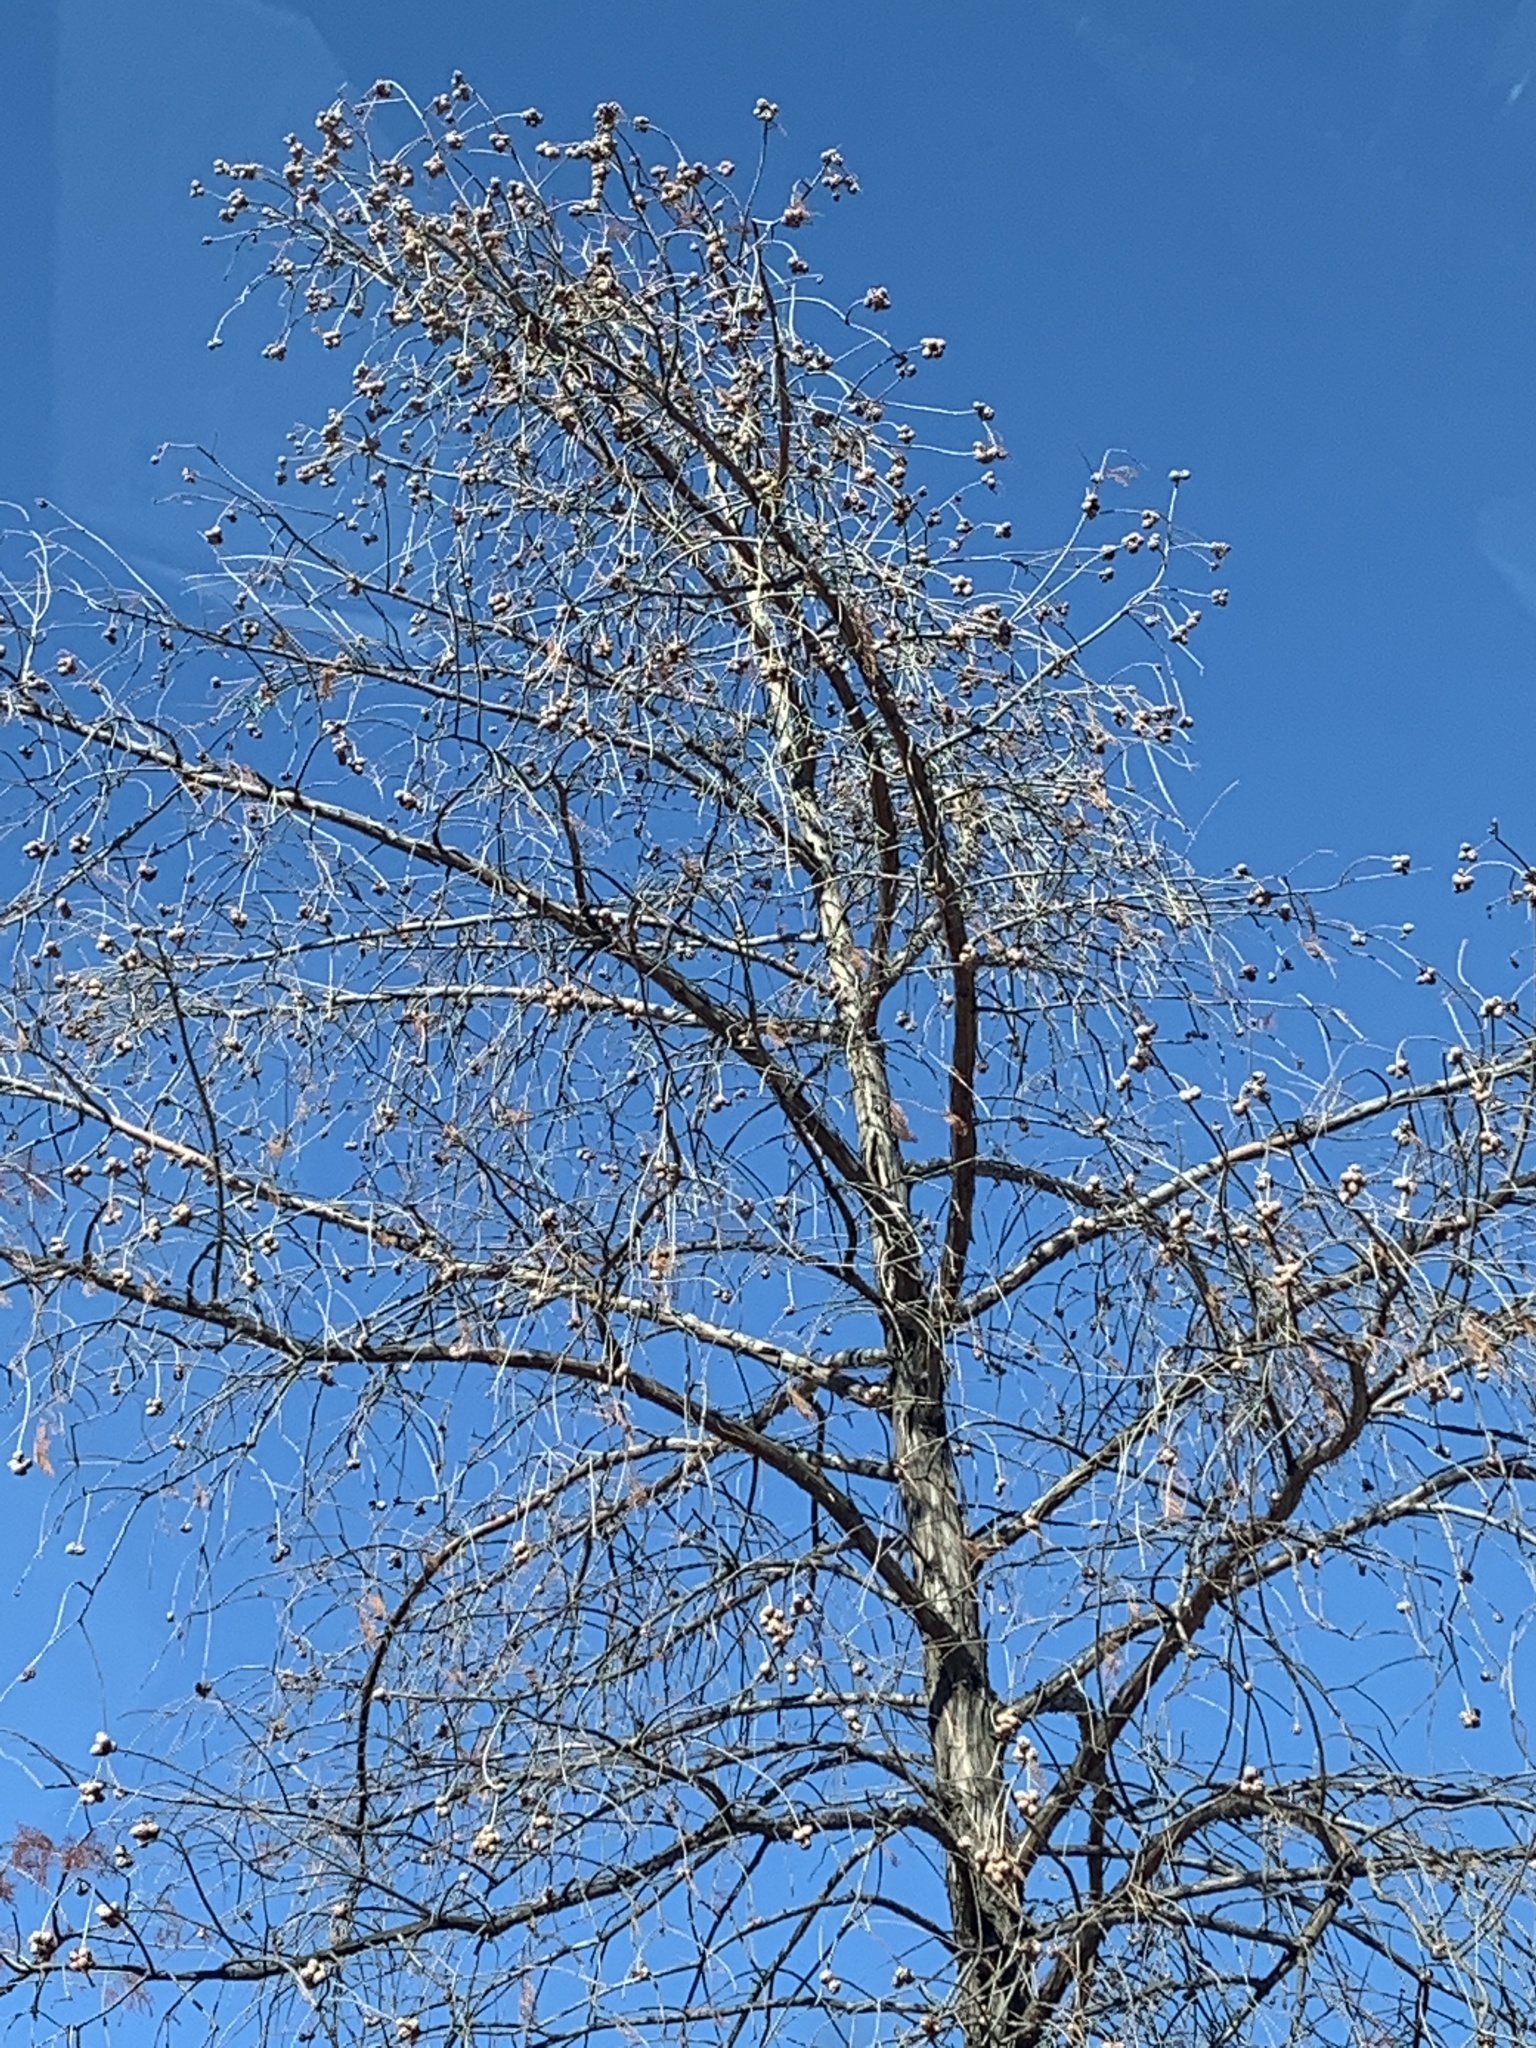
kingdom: Plantae
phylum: Tracheophyta
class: Pinopsida
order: Pinales
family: Cupressaceae
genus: Taxodium
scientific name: Taxodium distichum
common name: Bald cypress
